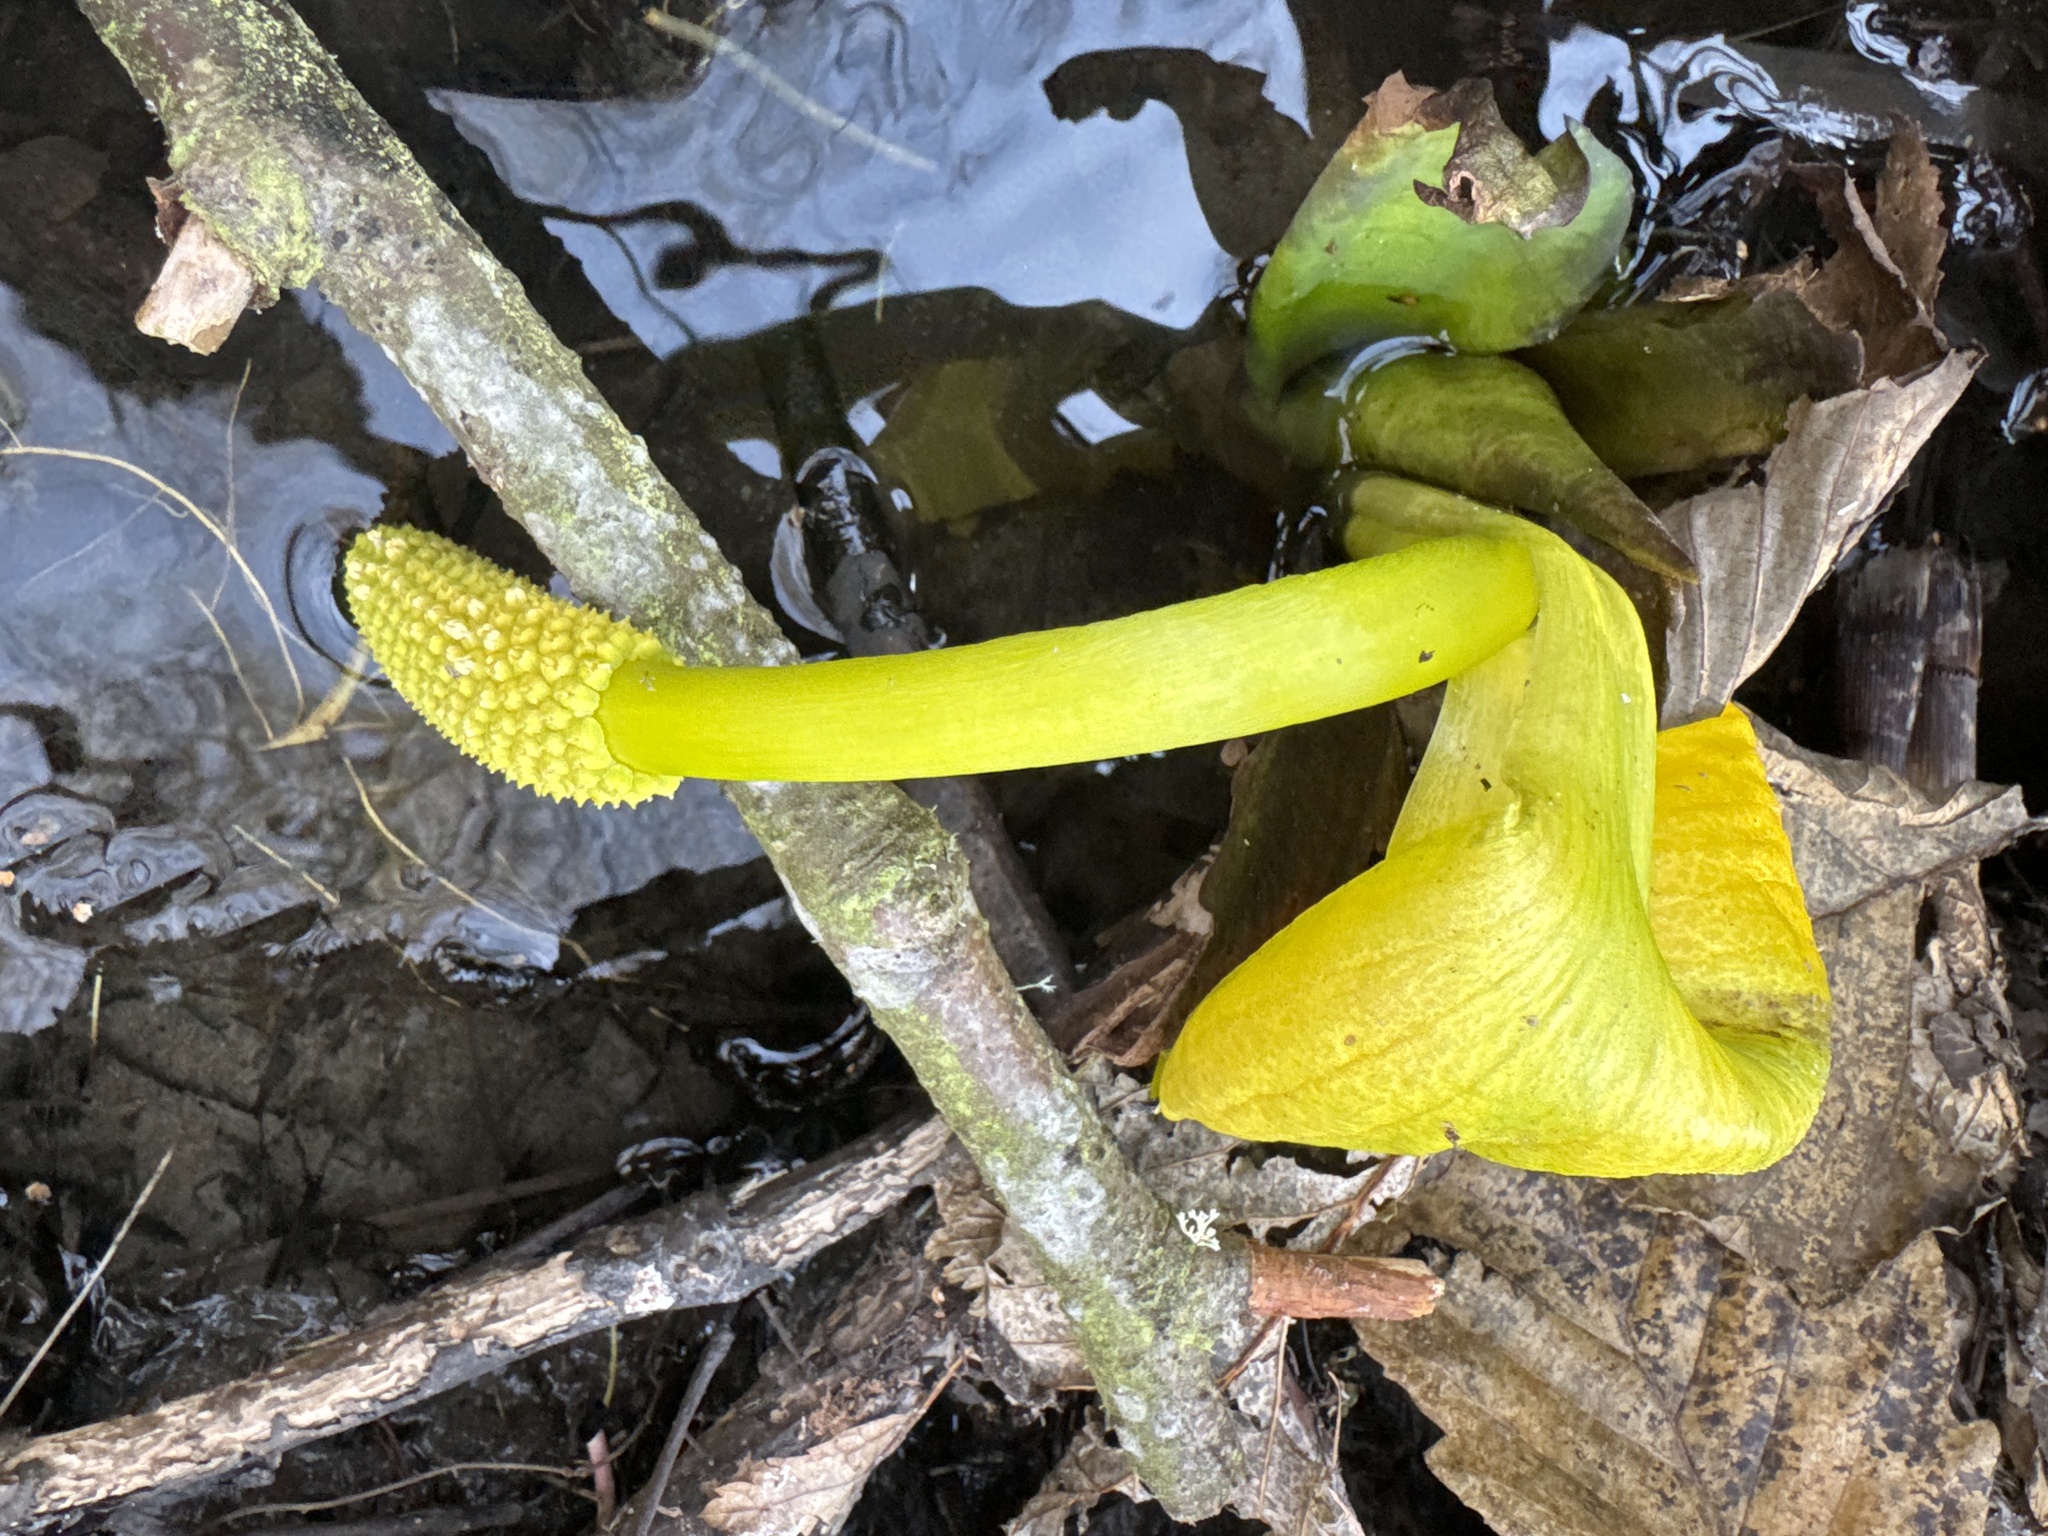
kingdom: Plantae
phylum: Tracheophyta
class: Liliopsida
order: Alismatales
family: Araceae
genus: Lysichiton
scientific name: Lysichiton americanus
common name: American skunk cabbage
